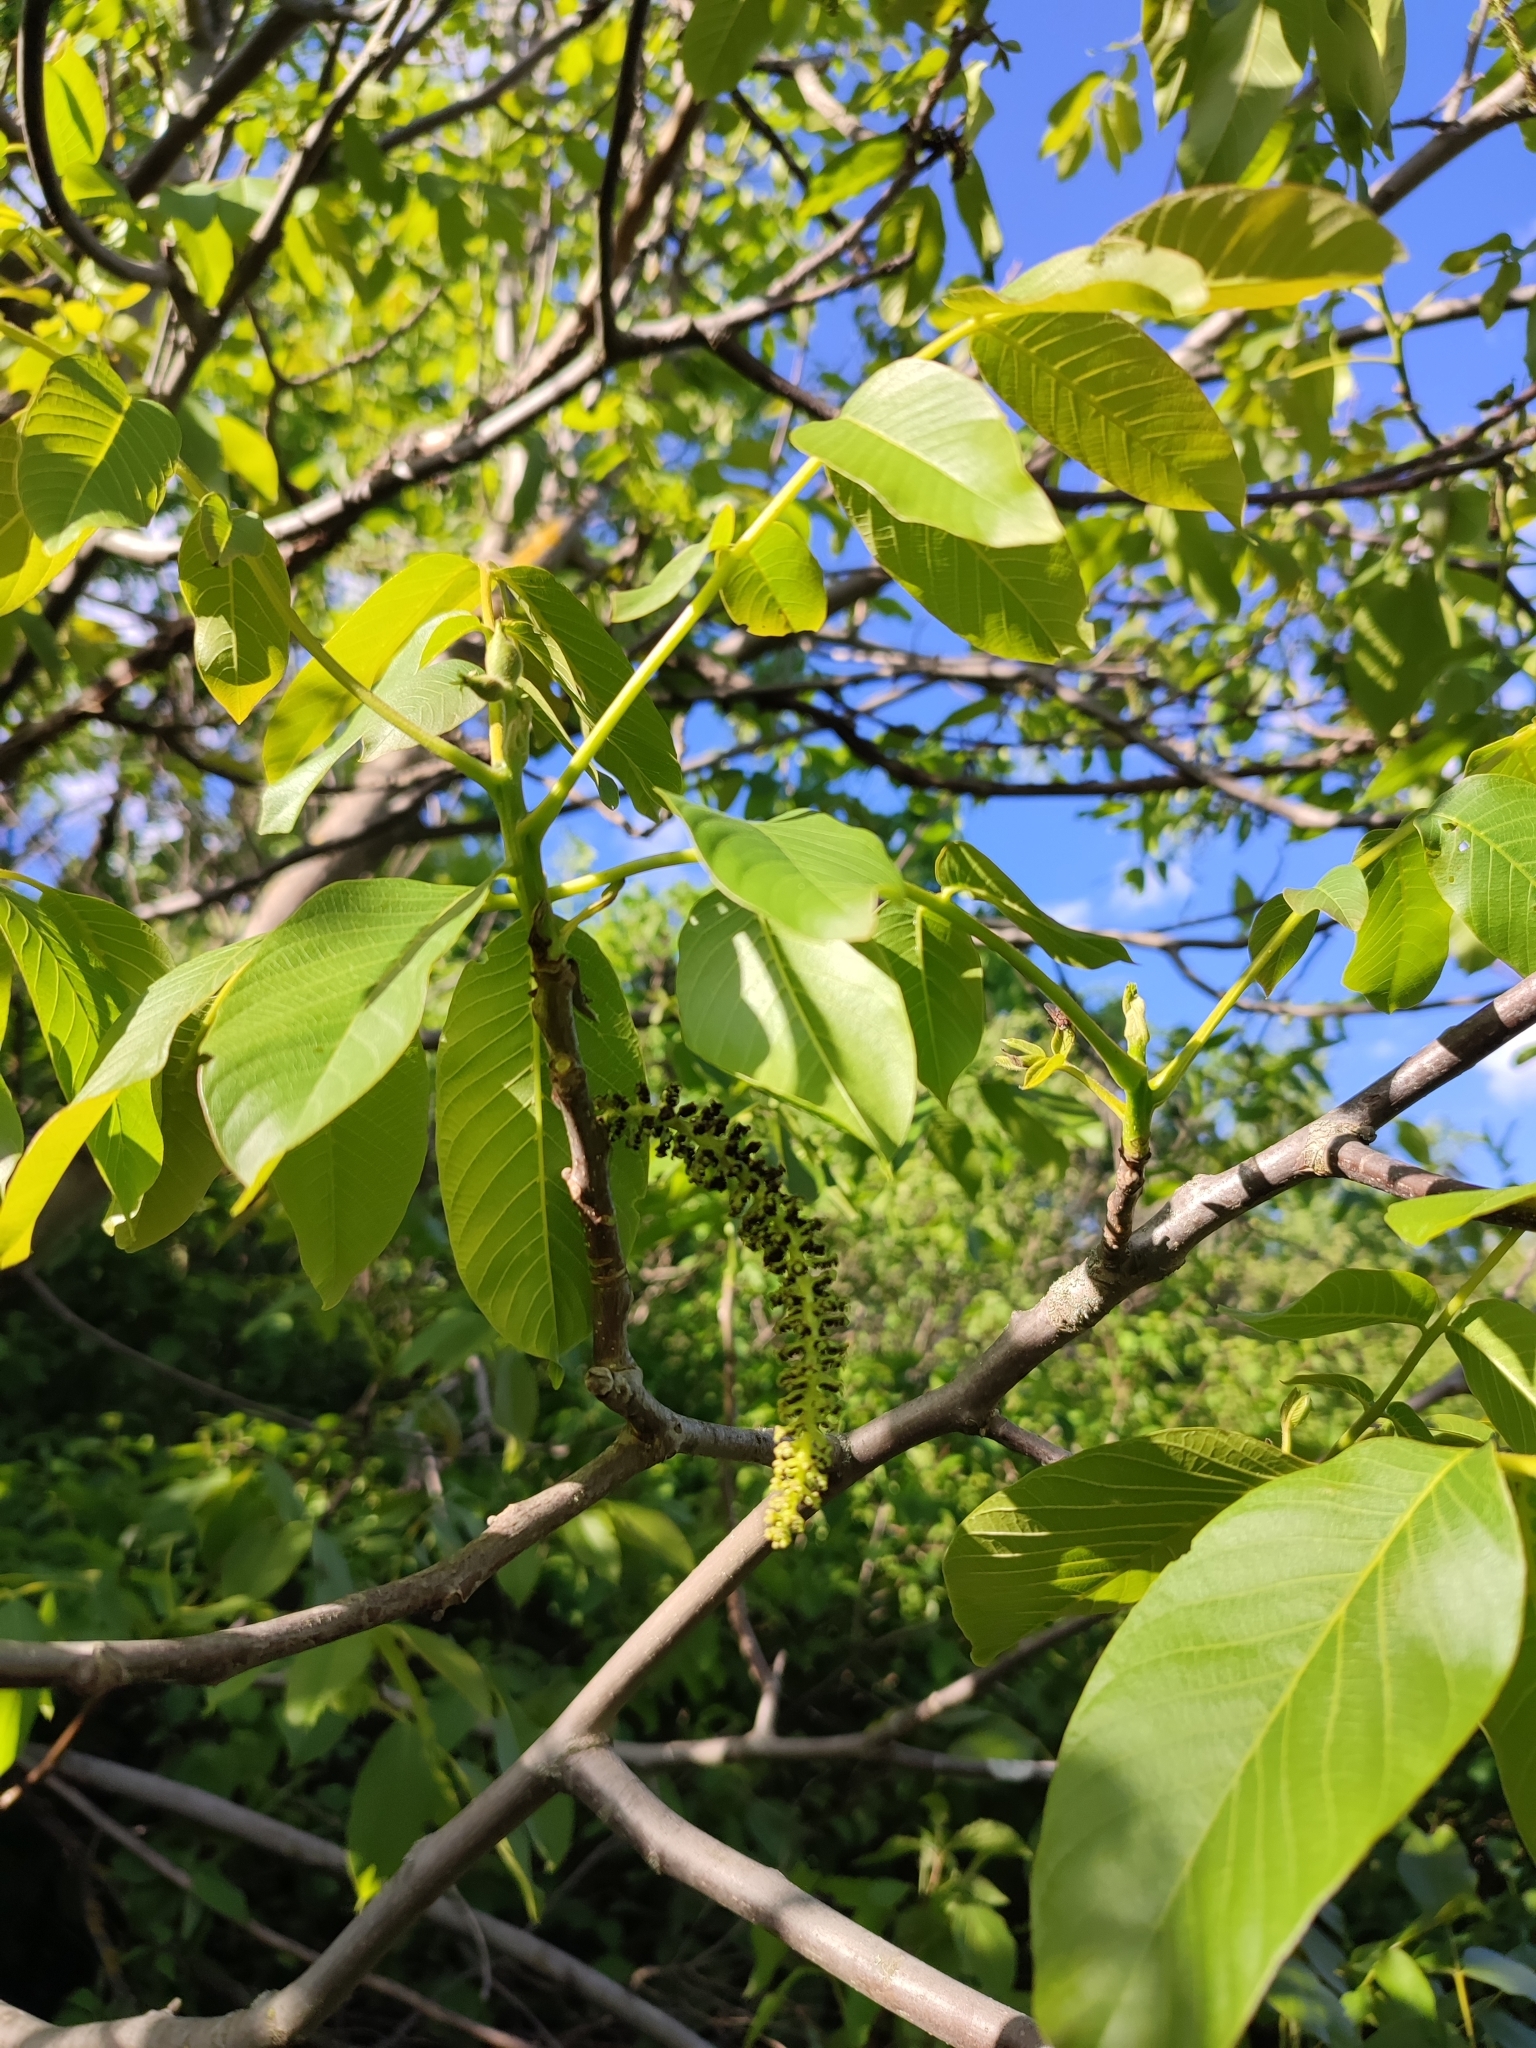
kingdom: Plantae
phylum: Tracheophyta
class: Magnoliopsida
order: Fagales
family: Juglandaceae
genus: Juglans
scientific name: Juglans regia
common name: Walnut
